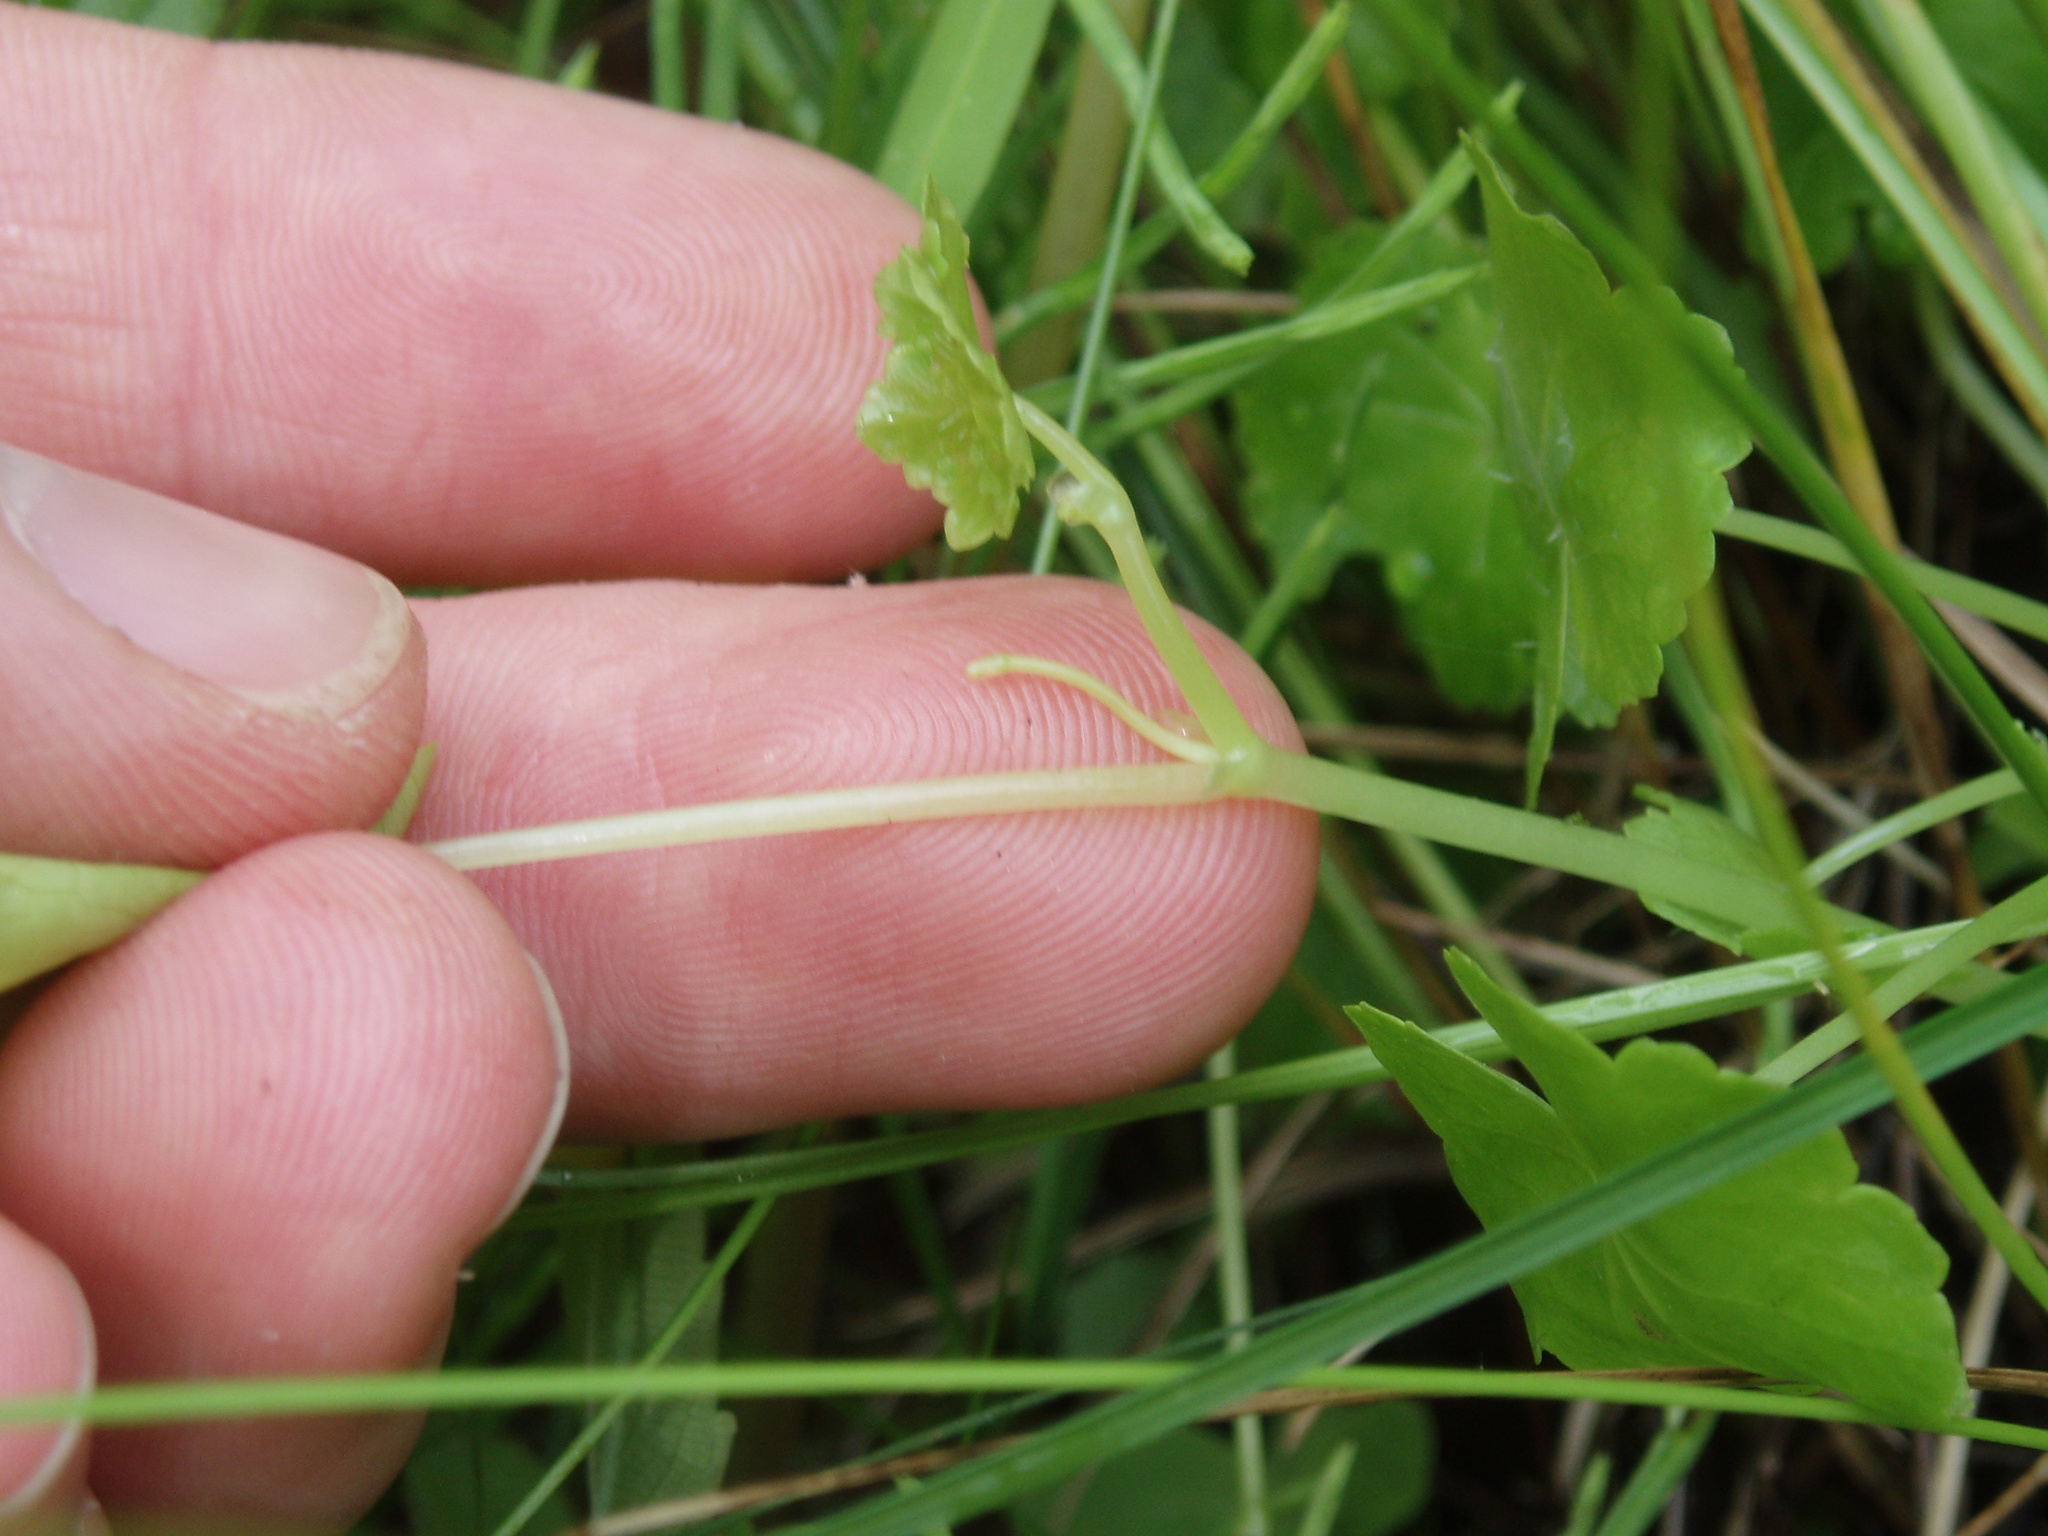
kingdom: Plantae
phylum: Tracheophyta
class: Magnoliopsida
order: Apiales
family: Araliaceae
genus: Hydrocotyle
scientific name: Hydrocotyle americana
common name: American water-pennywort
